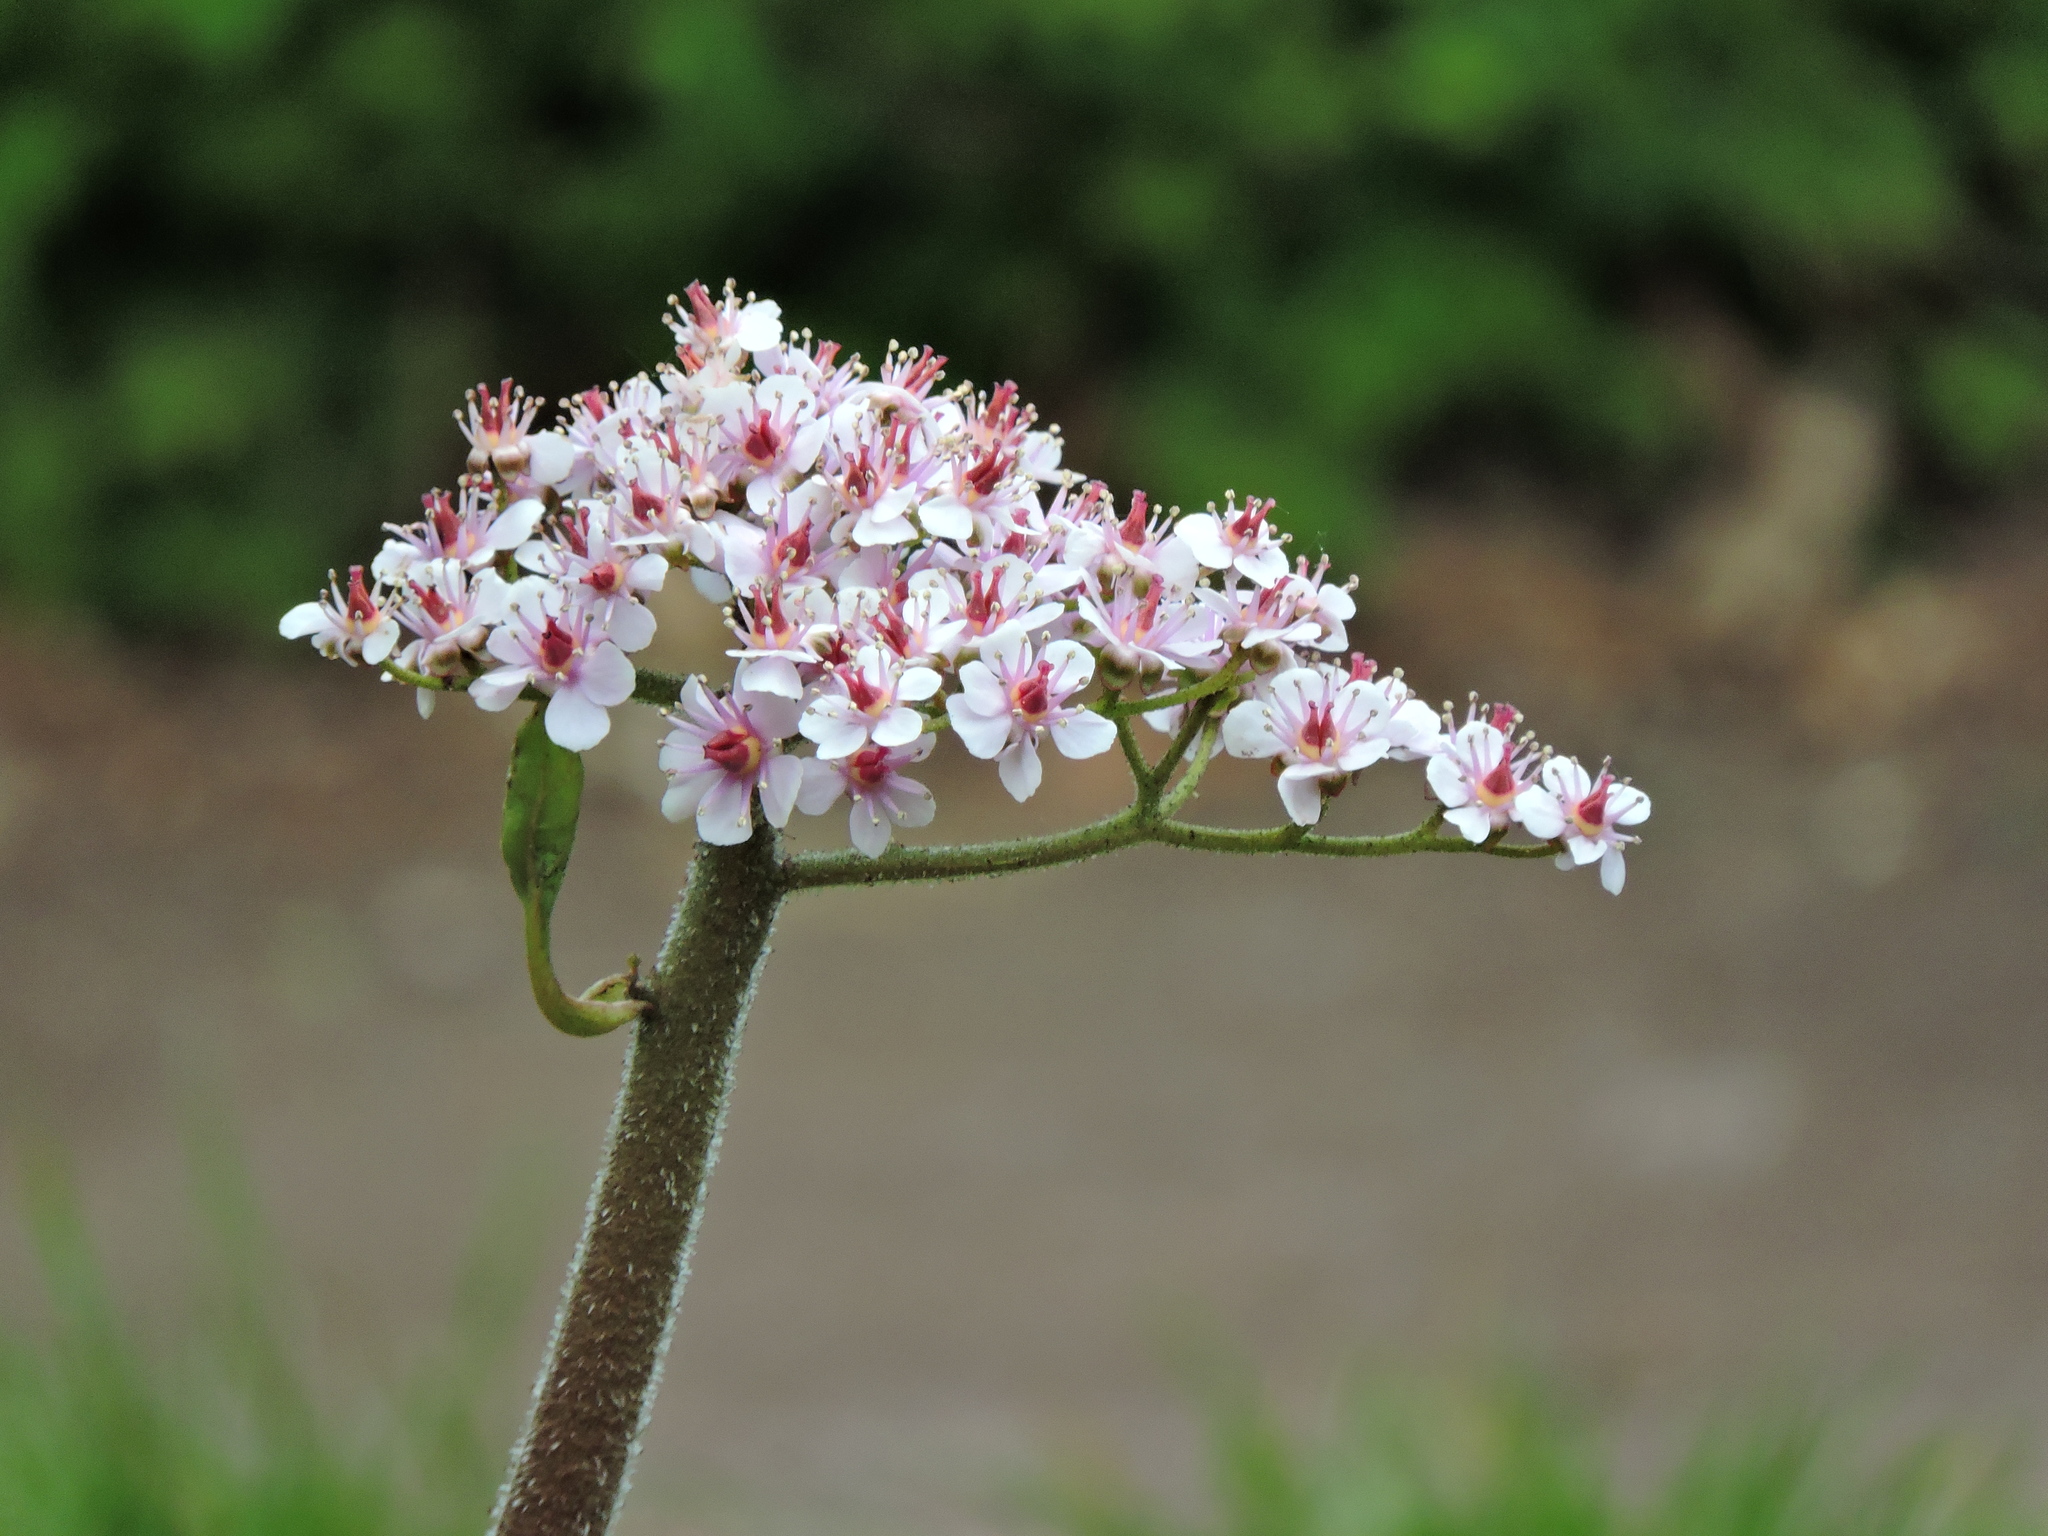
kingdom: Plantae
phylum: Tracheophyta
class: Magnoliopsida
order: Saxifragales
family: Saxifragaceae
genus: Darmera
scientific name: Darmera peltata
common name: Indian-rhubarb
